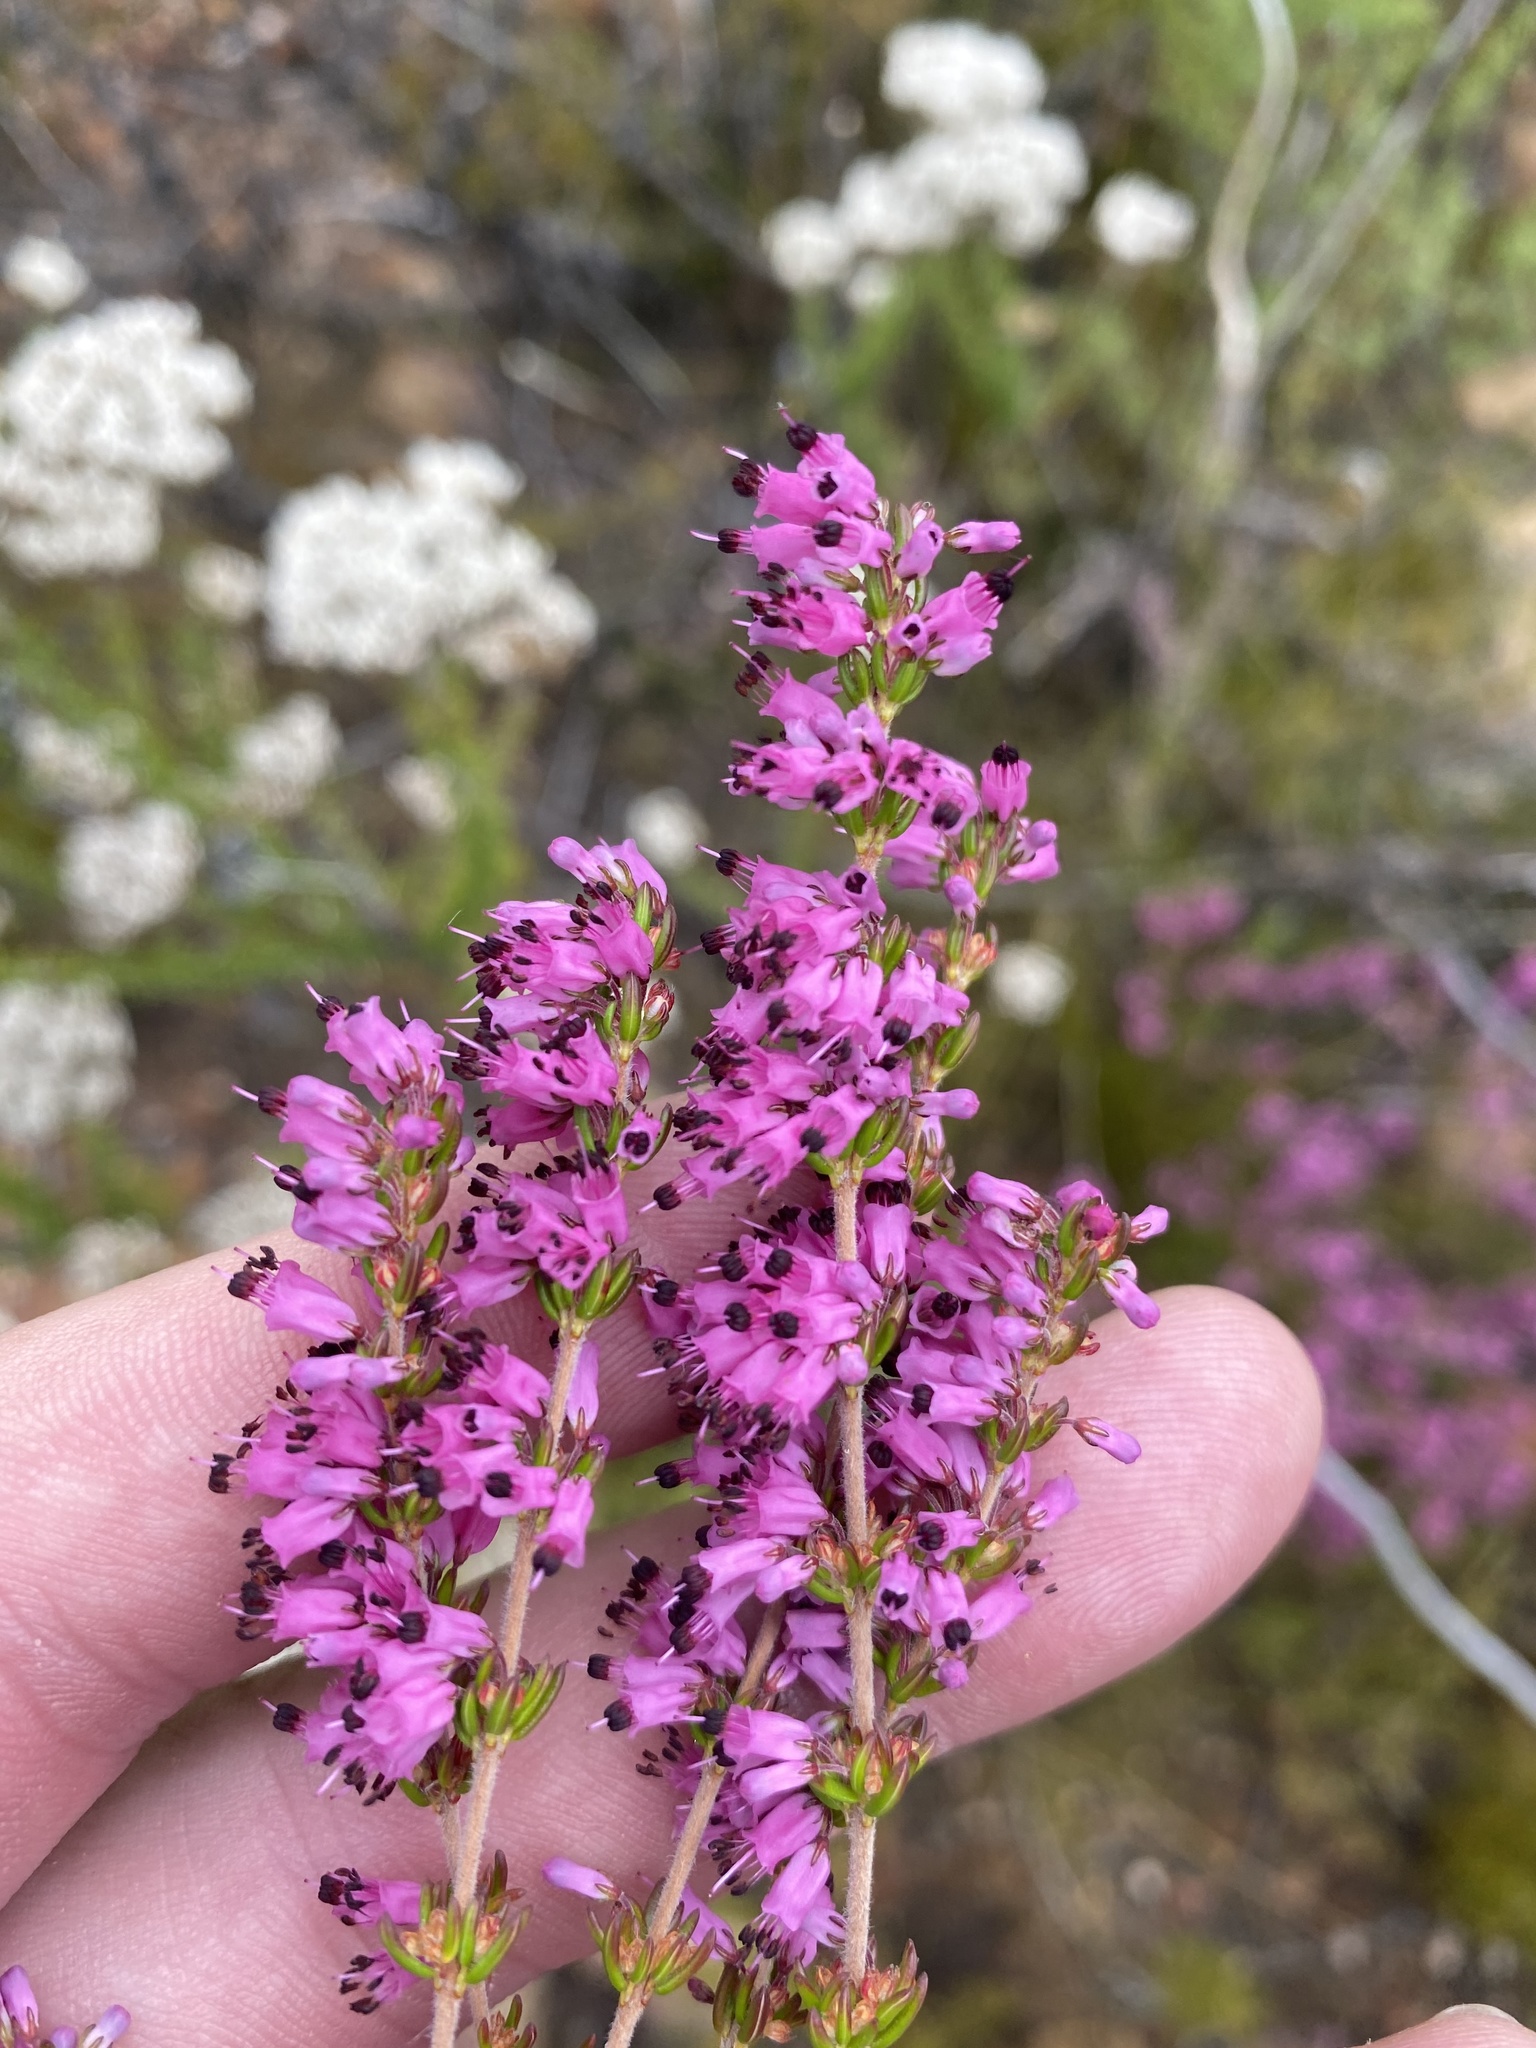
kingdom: Plantae
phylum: Tracheophyta
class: Magnoliopsida
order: Ericales
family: Ericaceae
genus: Erica
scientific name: Erica nudiflora
